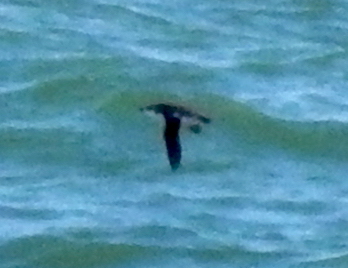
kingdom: Animalia
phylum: Chordata
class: Aves
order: Charadriiformes
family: Alcidae
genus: Brachyramphus
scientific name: Brachyramphus marmoratus
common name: Marbled murrelet
